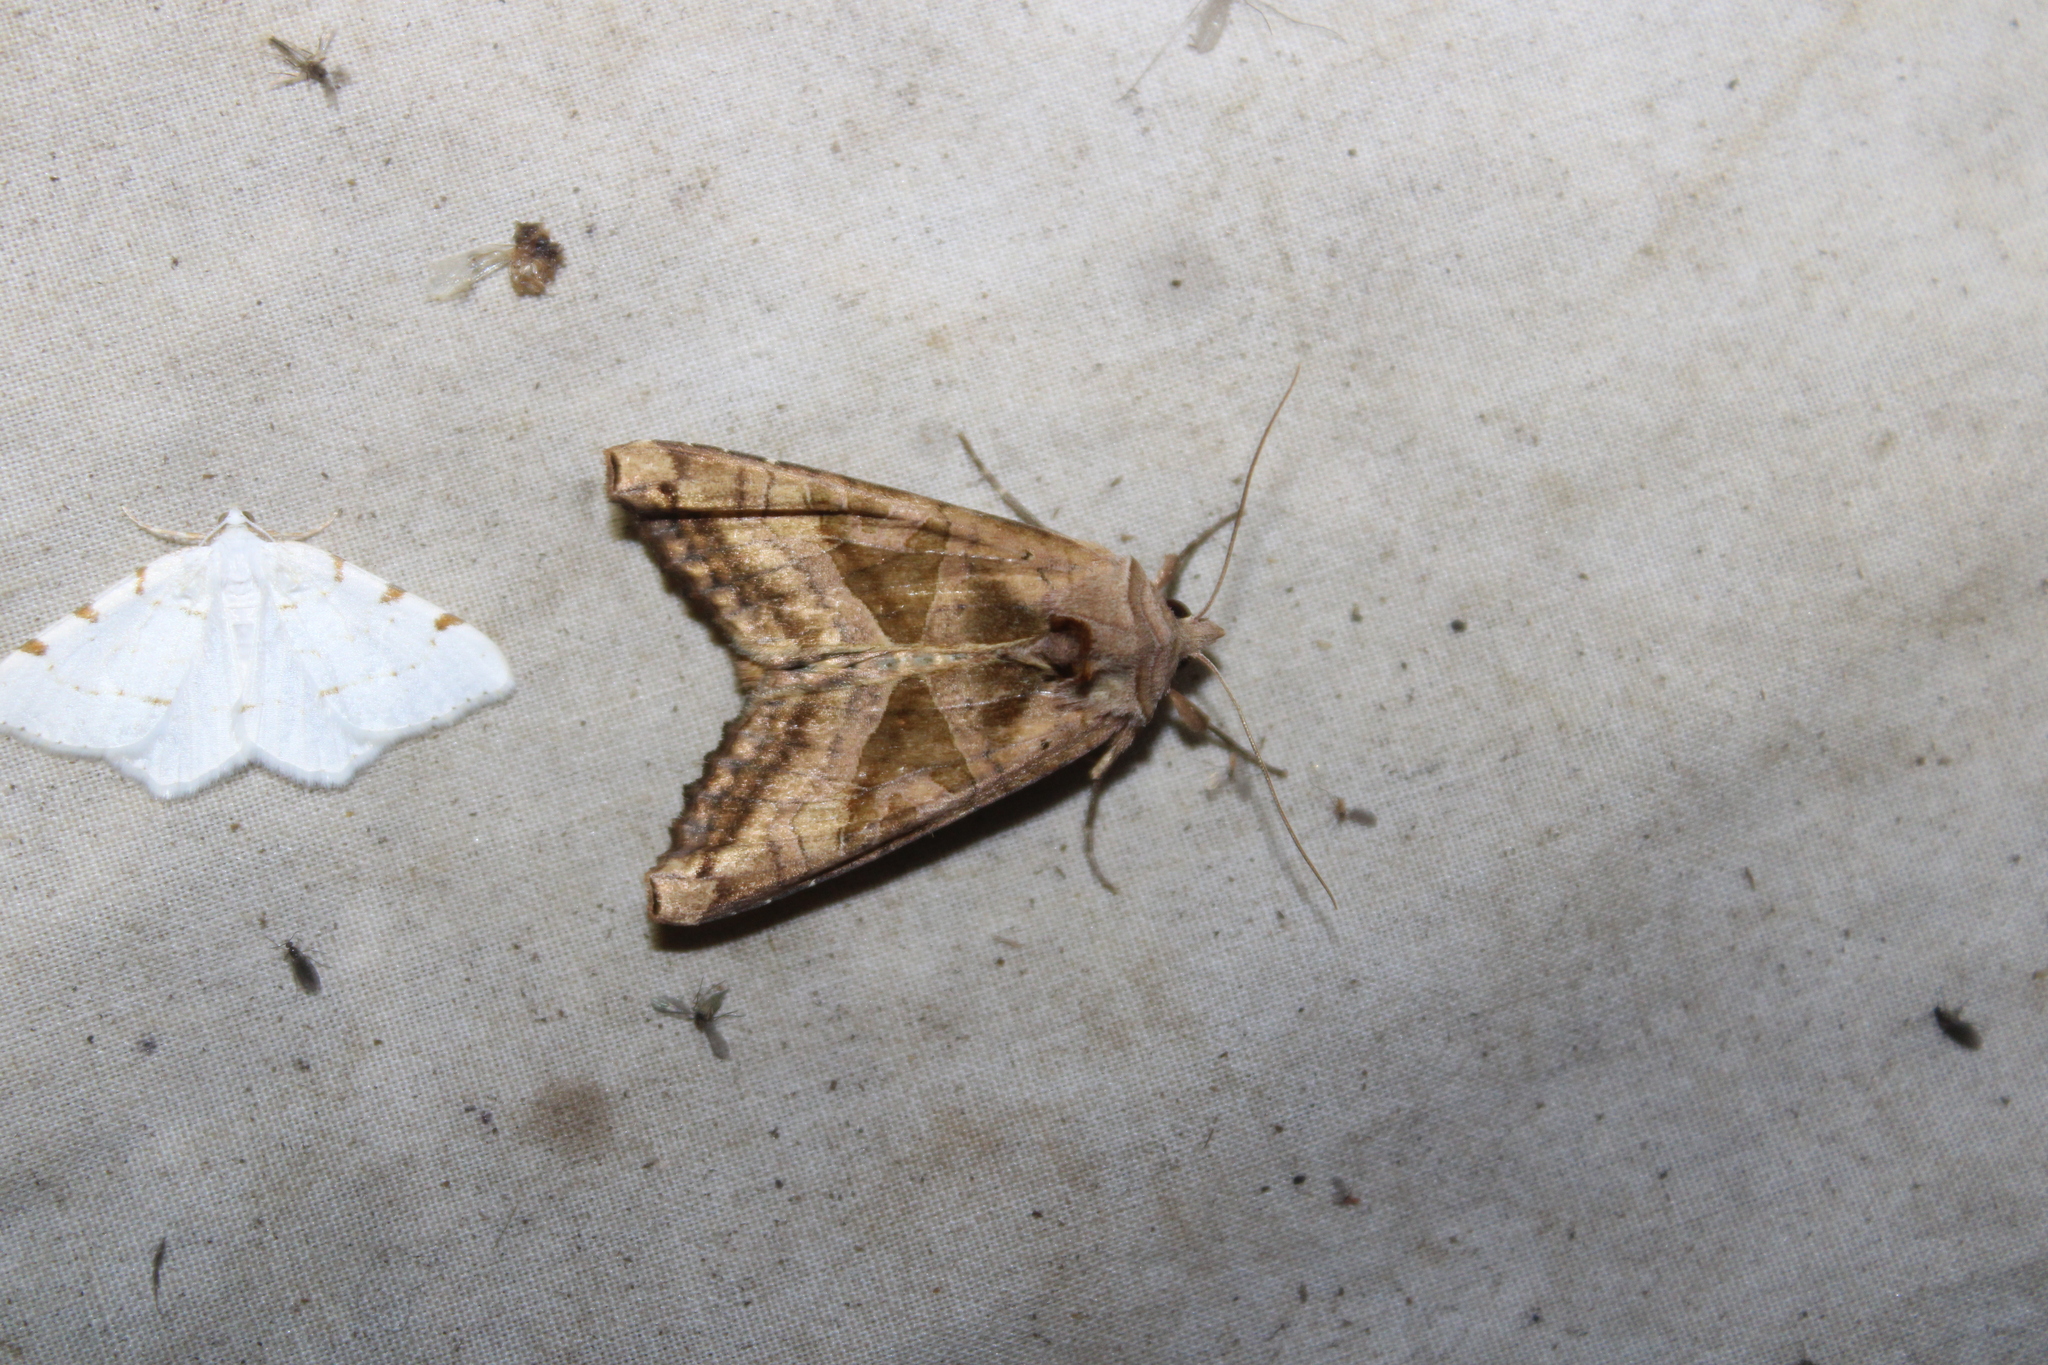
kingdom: Animalia
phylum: Arthropoda
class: Insecta
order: Lepidoptera
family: Noctuidae
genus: Phlogophora
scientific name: Phlogophora periculosa
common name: Brown angle shades
